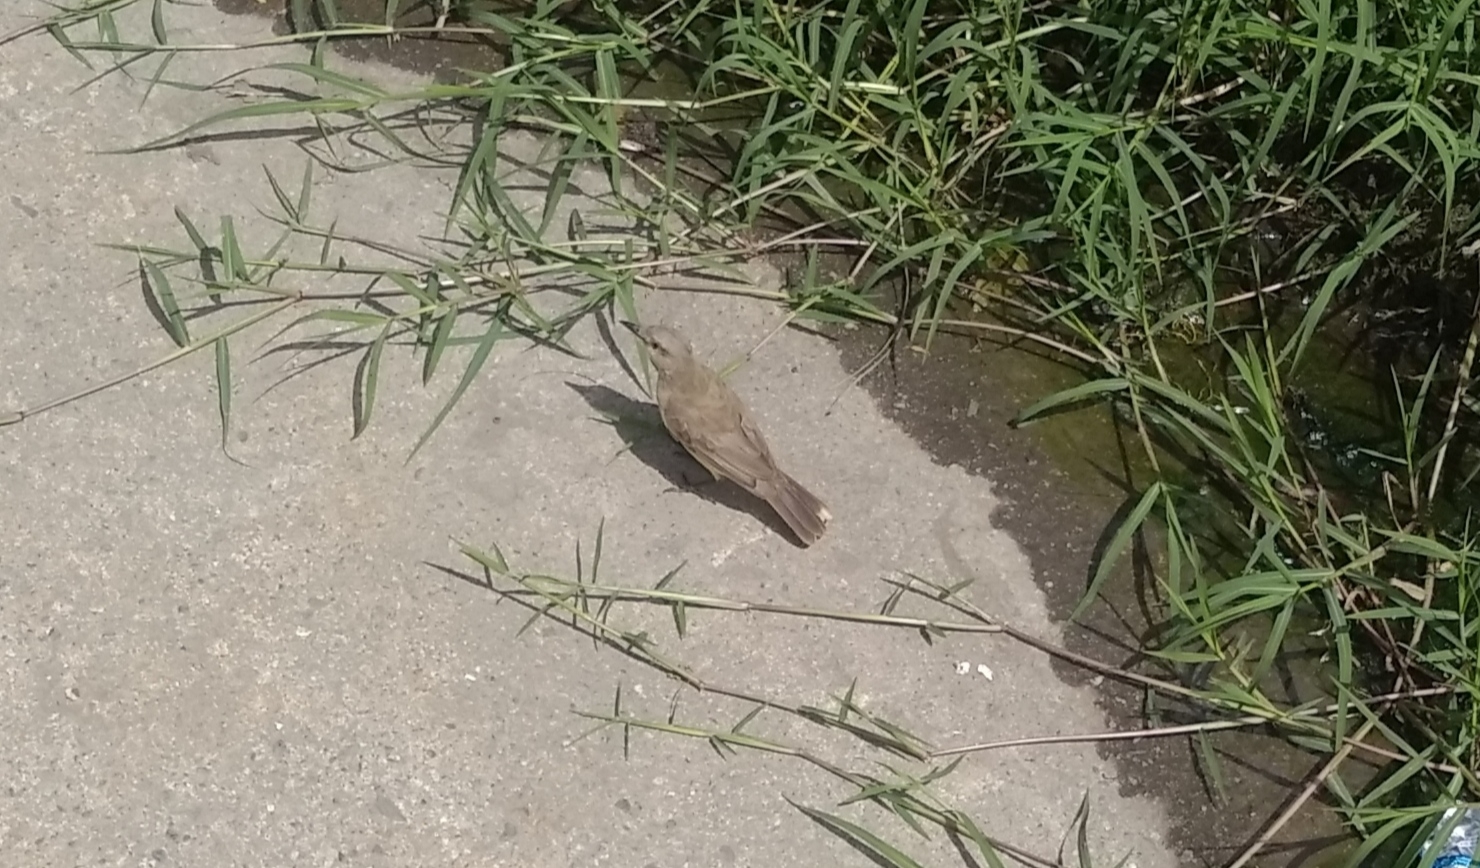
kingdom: Animalia
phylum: Chordata
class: Aves
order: Passeriformes
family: Tyrannidae
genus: Machetornis
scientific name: Machetornis rixosa
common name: Cattle tyrant
